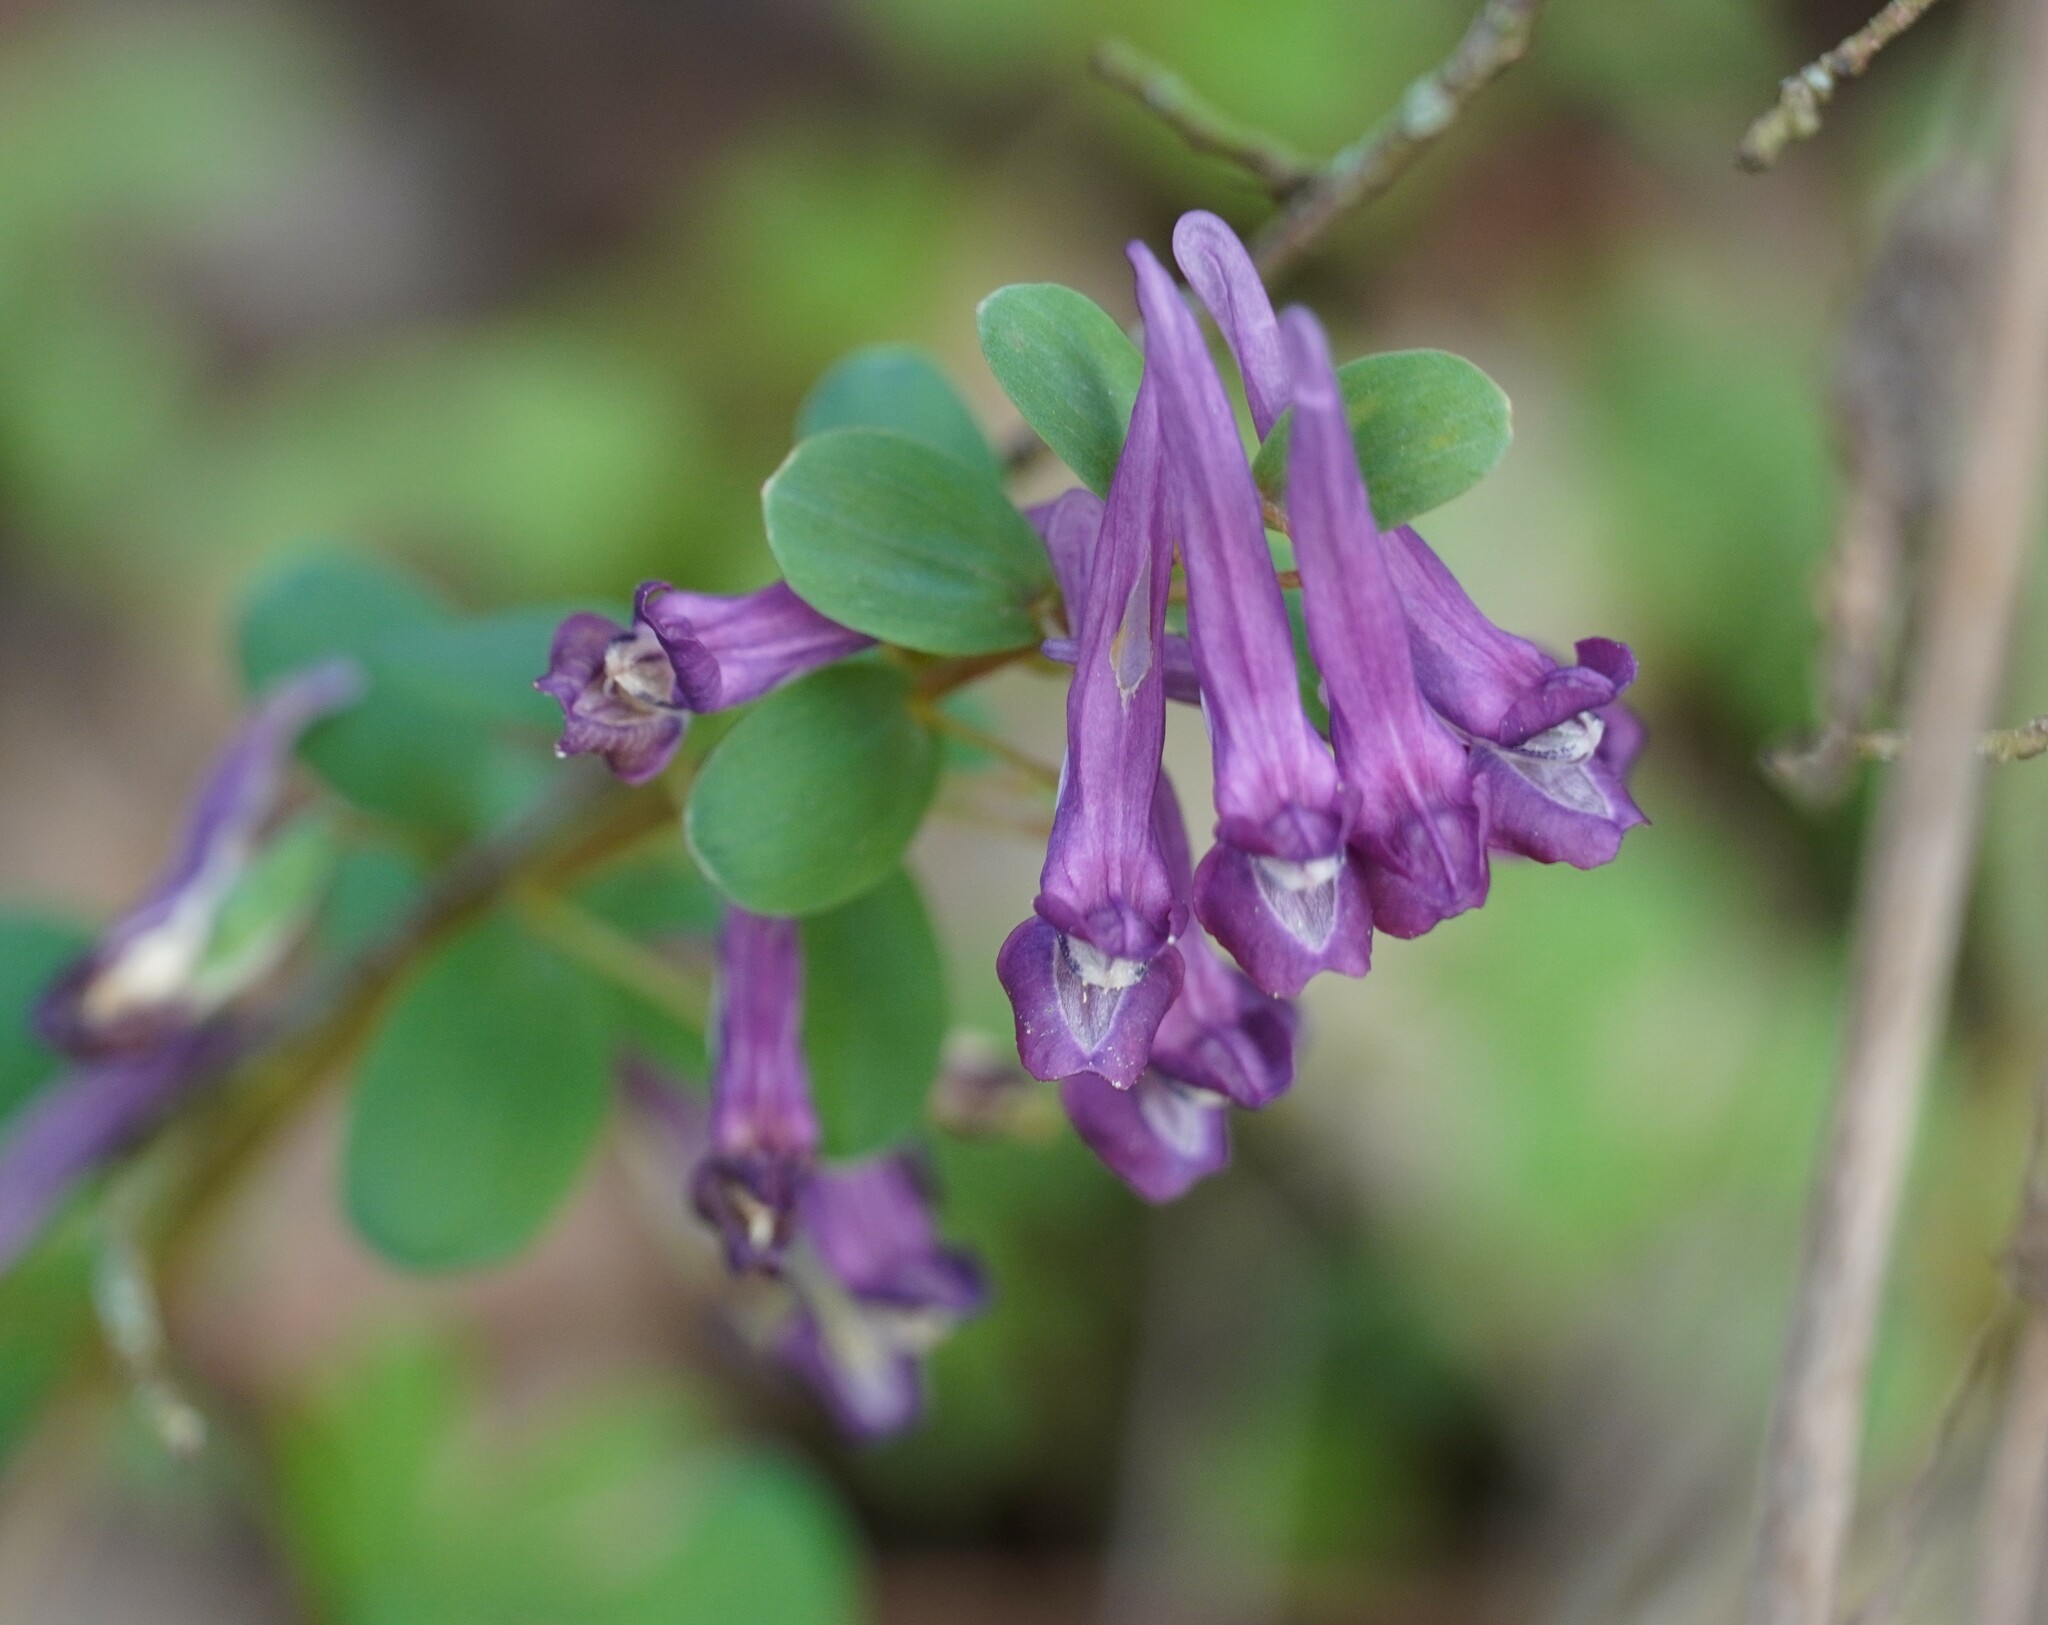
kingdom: Plantae
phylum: Tracheophyta
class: Magnoliopsida
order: Ranunculales
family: Papaveraceae
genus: Corydalis
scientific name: Corydalis cava
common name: Hollowroot
